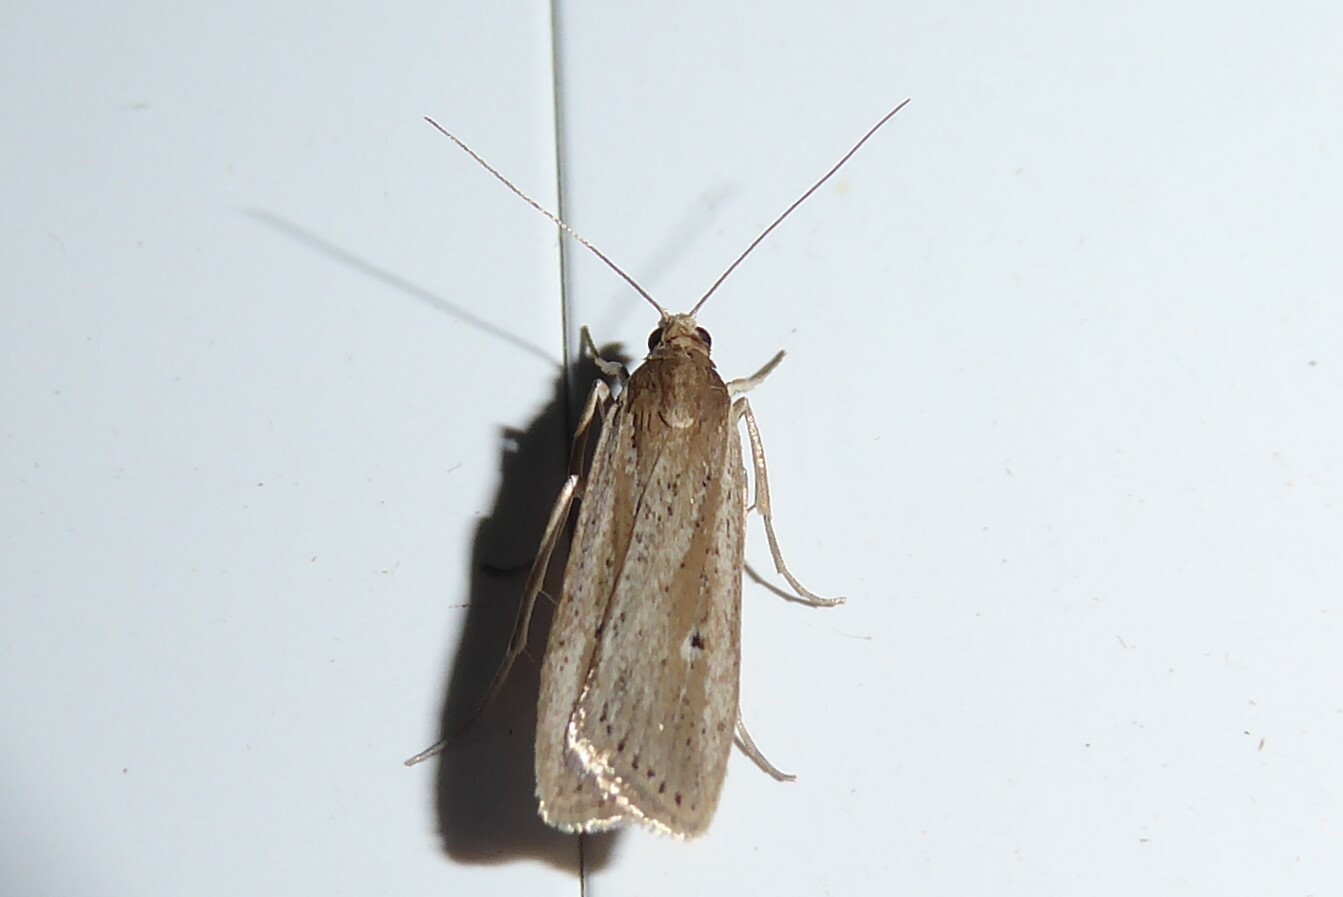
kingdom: Animalia
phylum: Arthropoda
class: Insecta
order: Lepidoptera
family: Crambidae
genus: Eudonia
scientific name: Eudonia sabulosella
